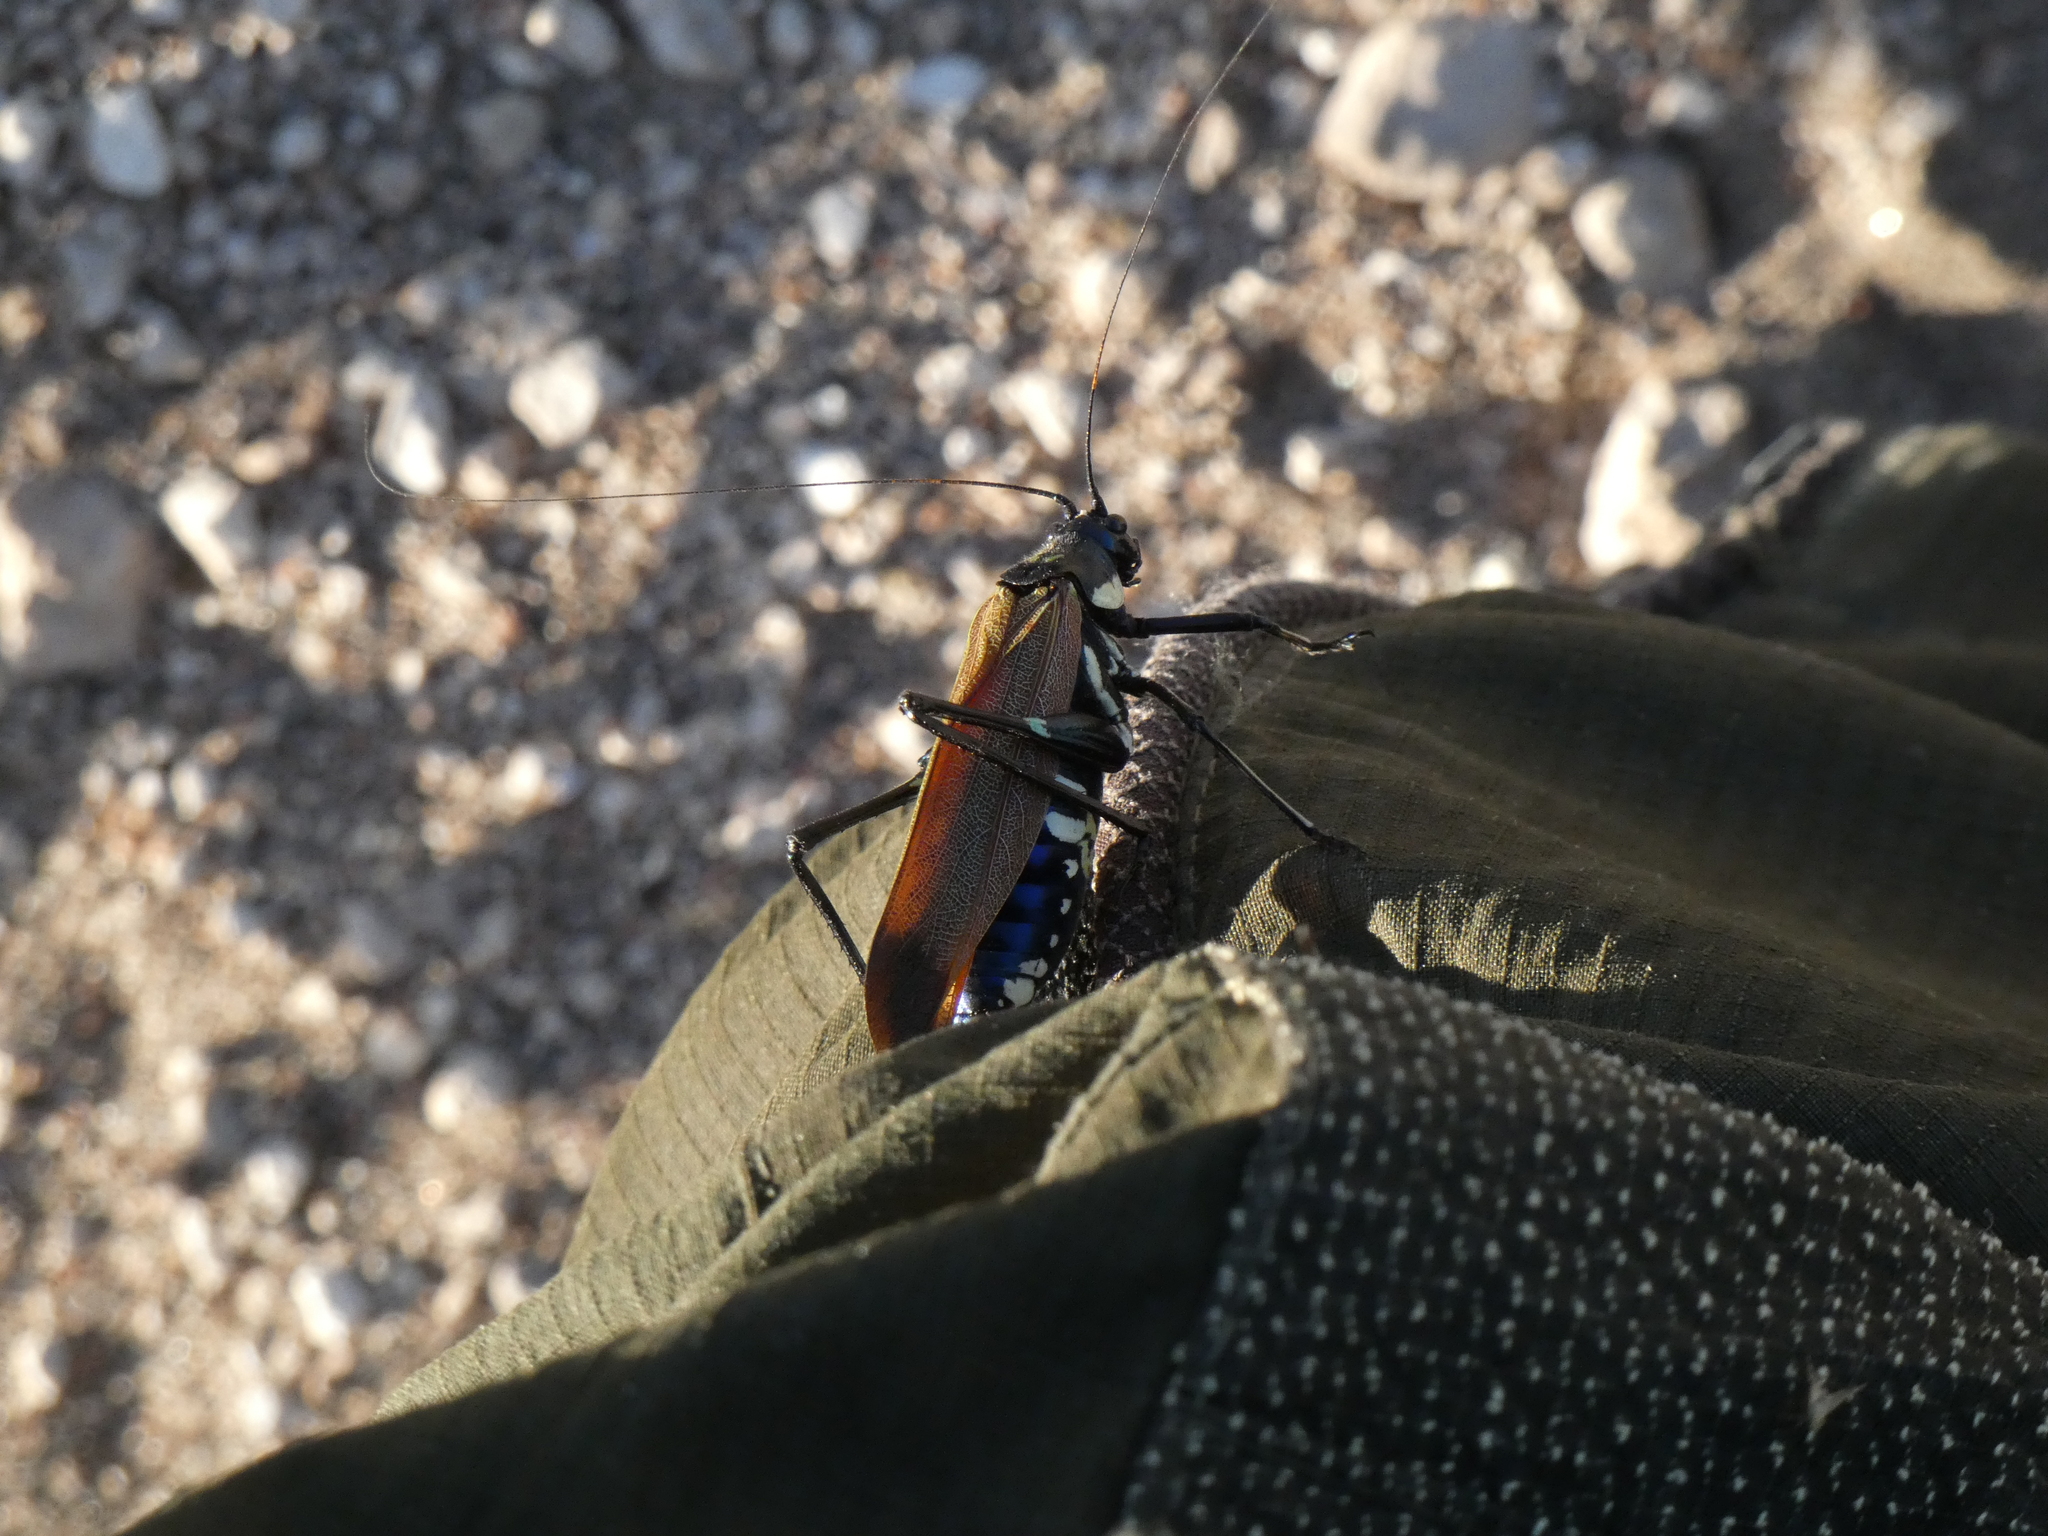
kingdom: Animalia
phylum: Arthropoda
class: Insecta
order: Orthoptera
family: Tettigoniidae
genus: Scaphura
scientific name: Scaphura elegans
